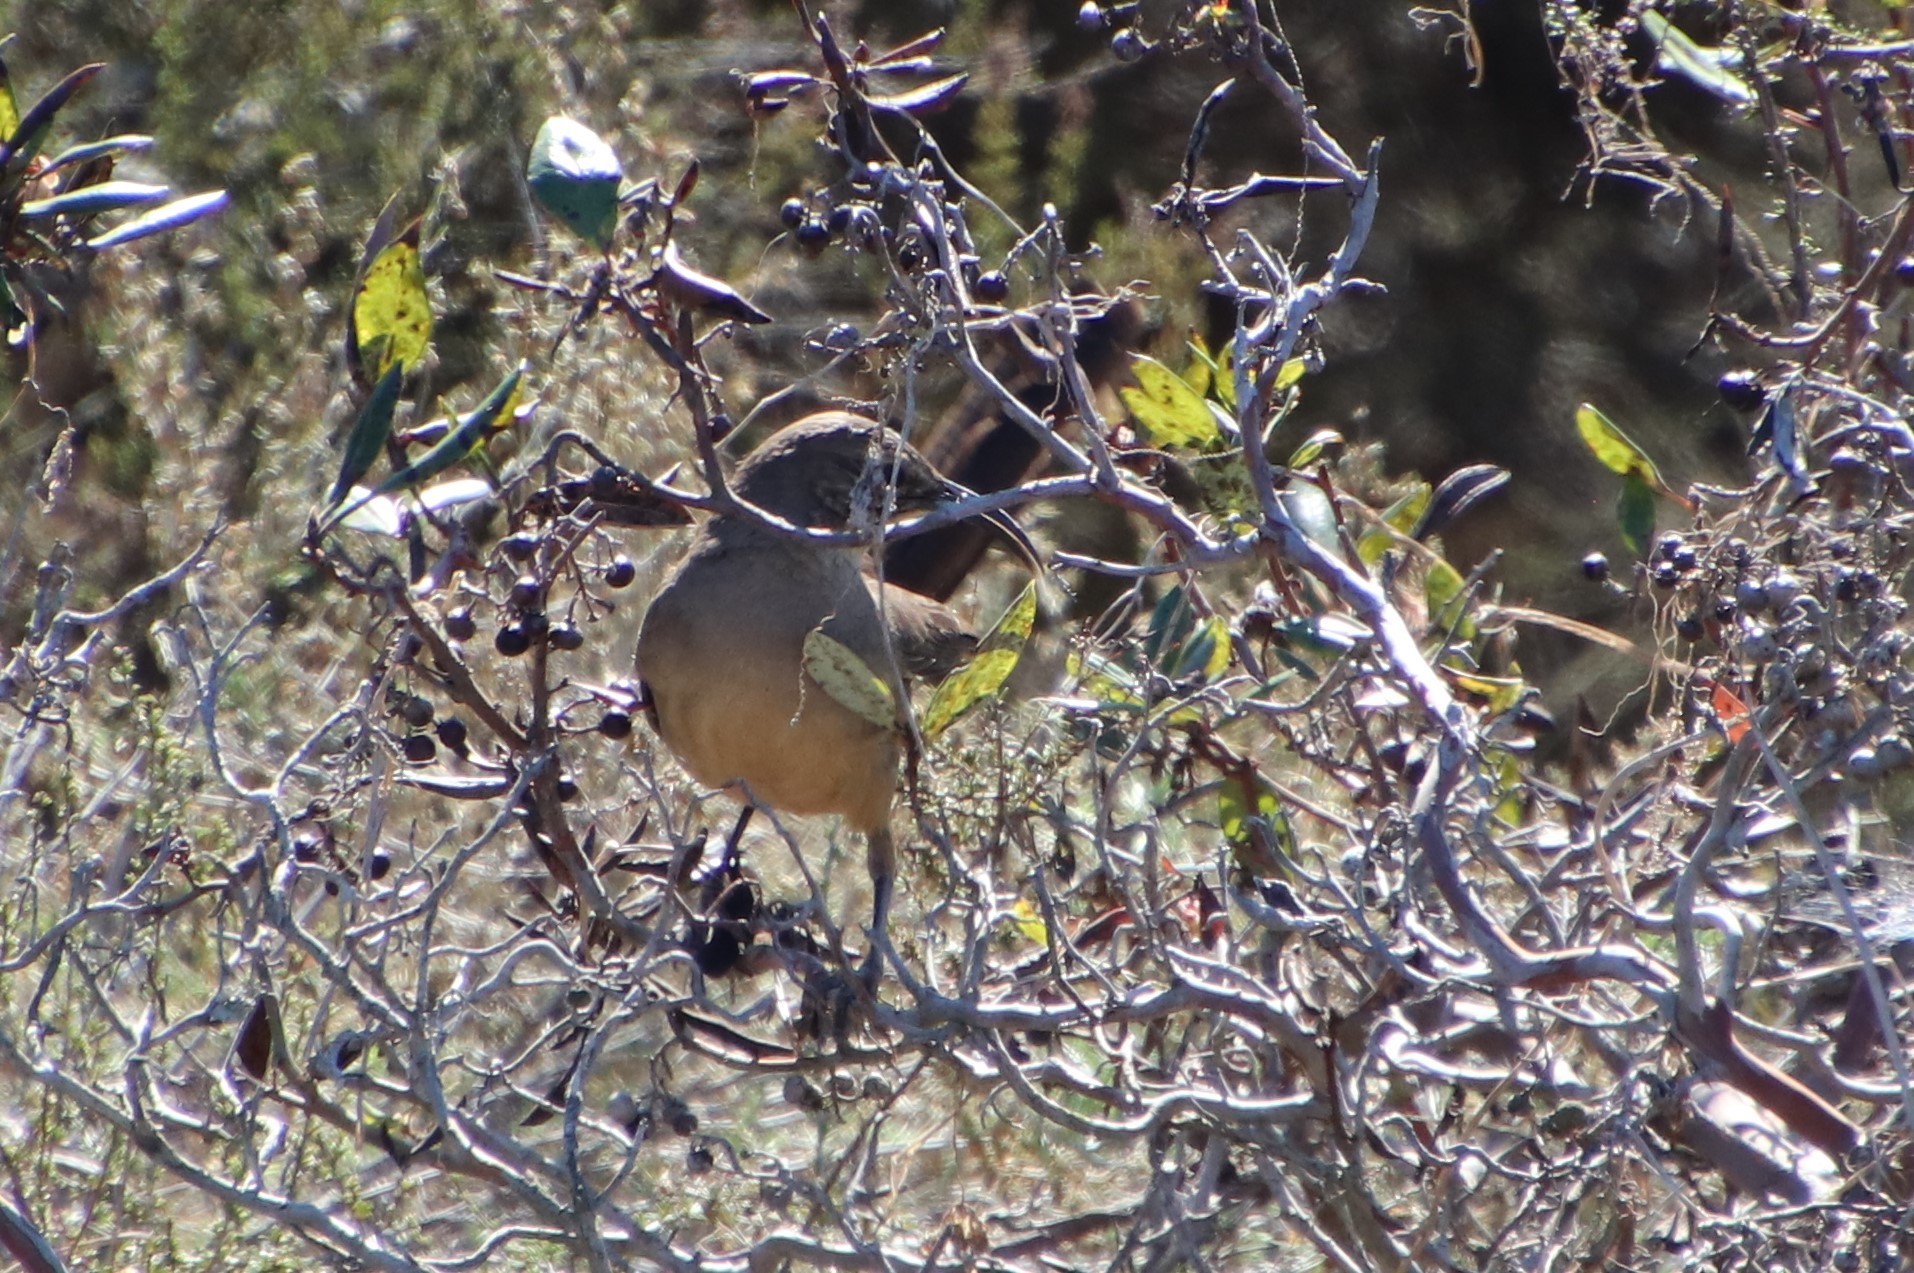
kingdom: Animalia
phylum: Chordata
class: Aves
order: Passeriformes
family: Mimidae
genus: Toxostoma
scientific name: Toxostoma redivivum
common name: California thrasher
